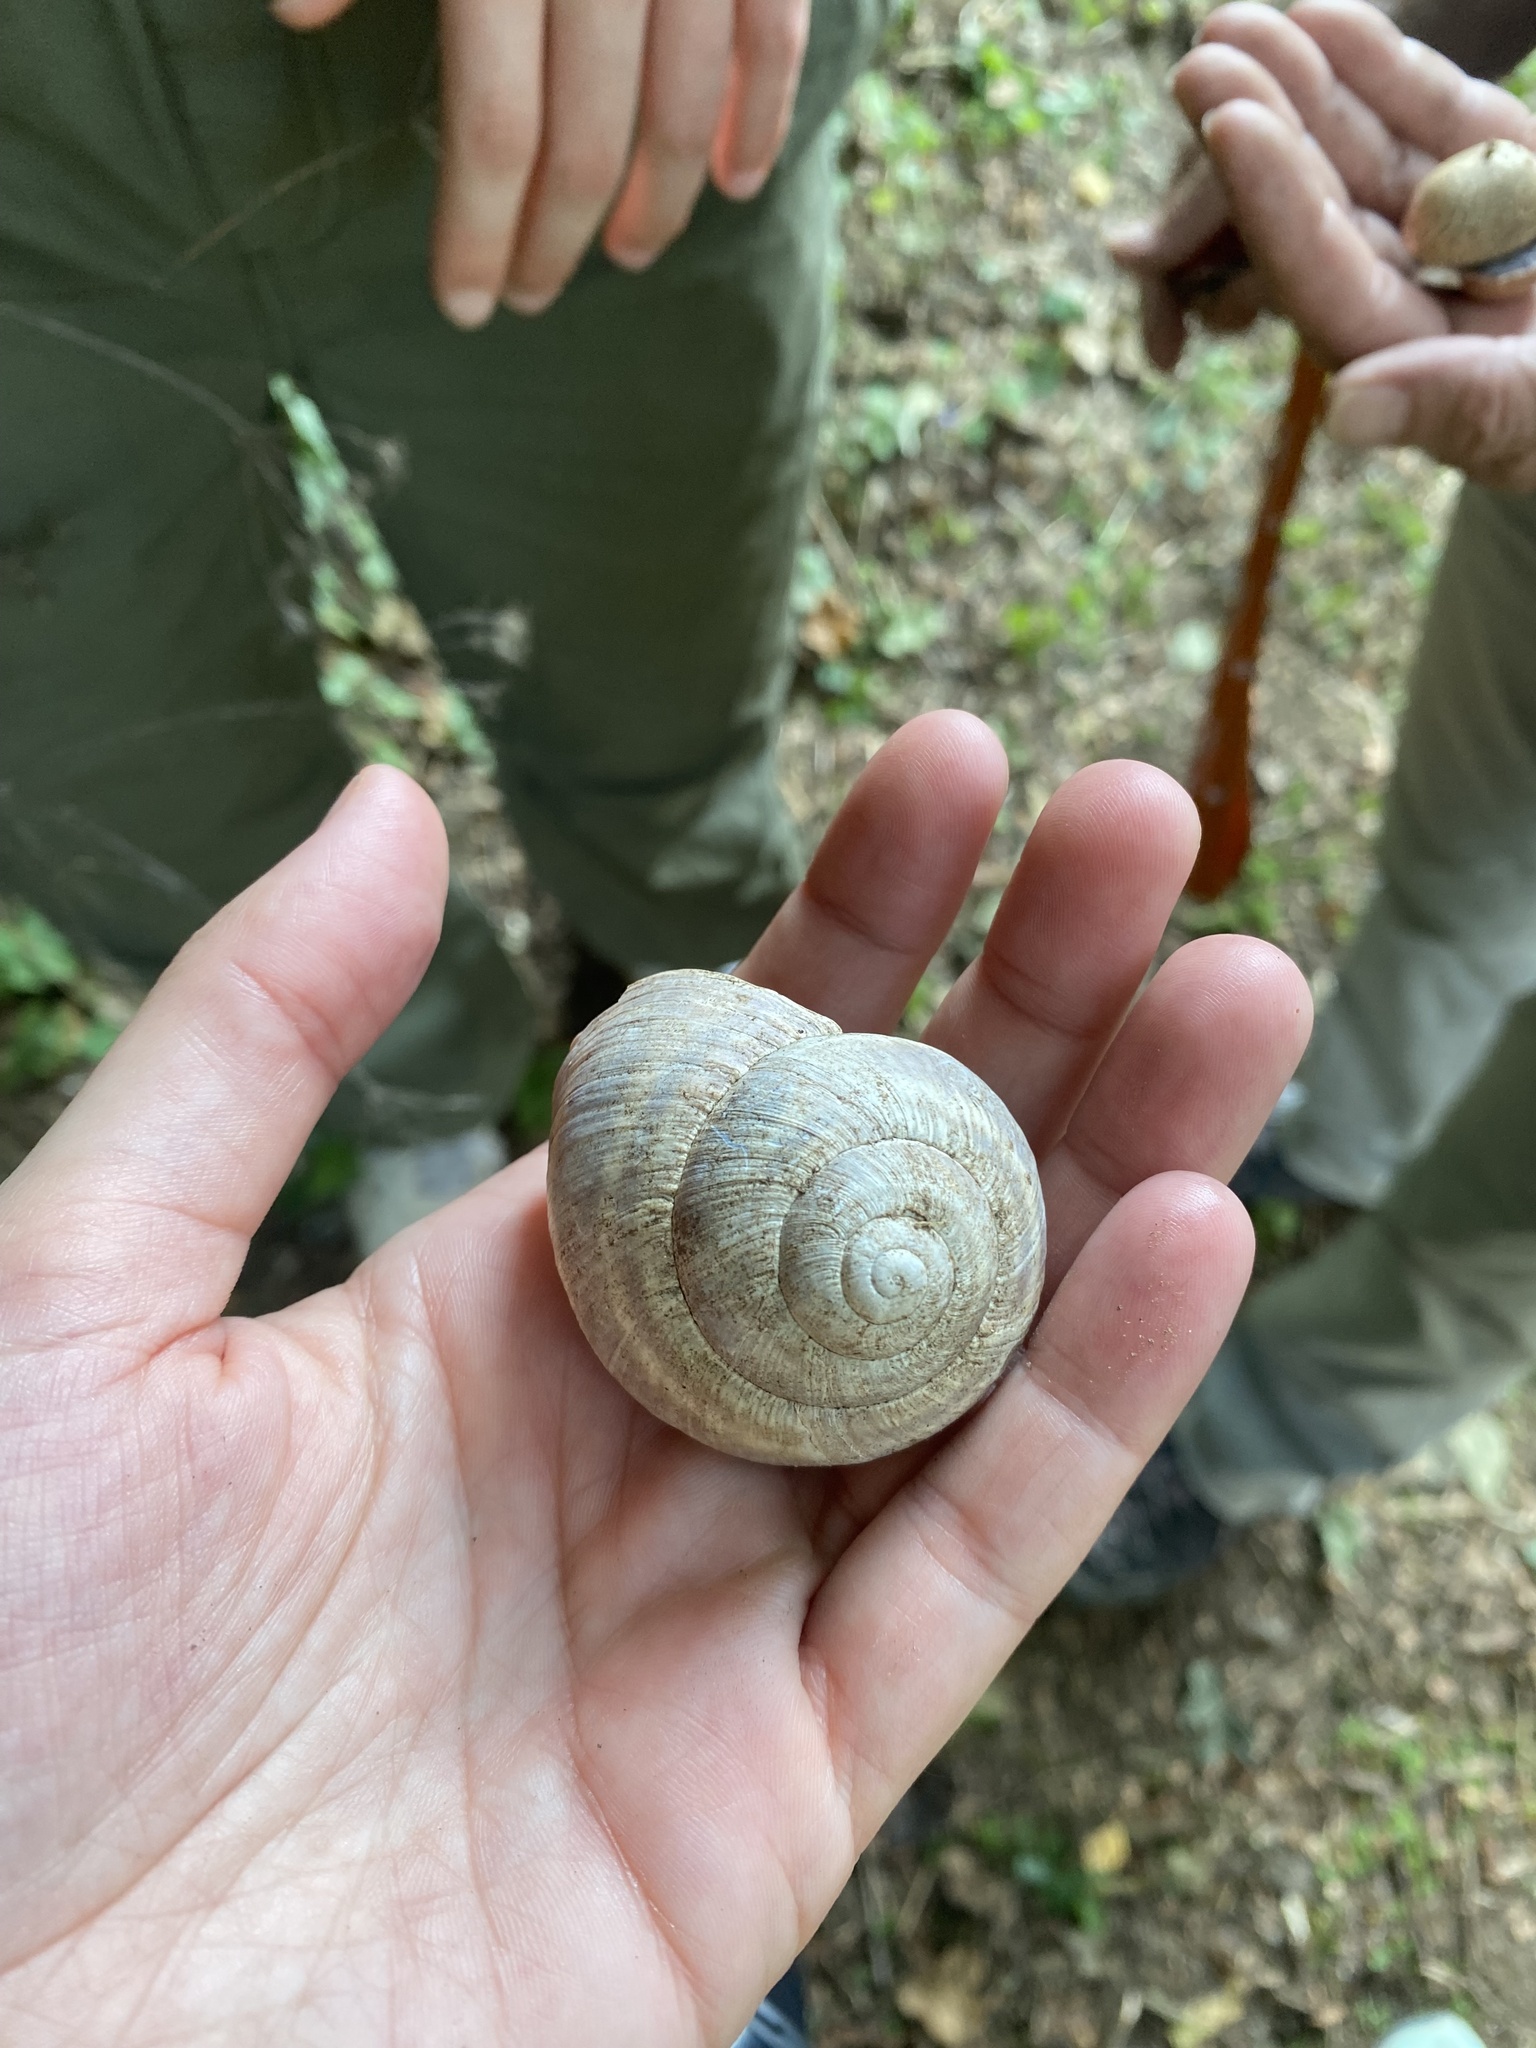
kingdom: Animalia
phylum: Mollusca
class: Gastropoda
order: Stylommatophora
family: Helicidae
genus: Helix
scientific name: Helix straminea
